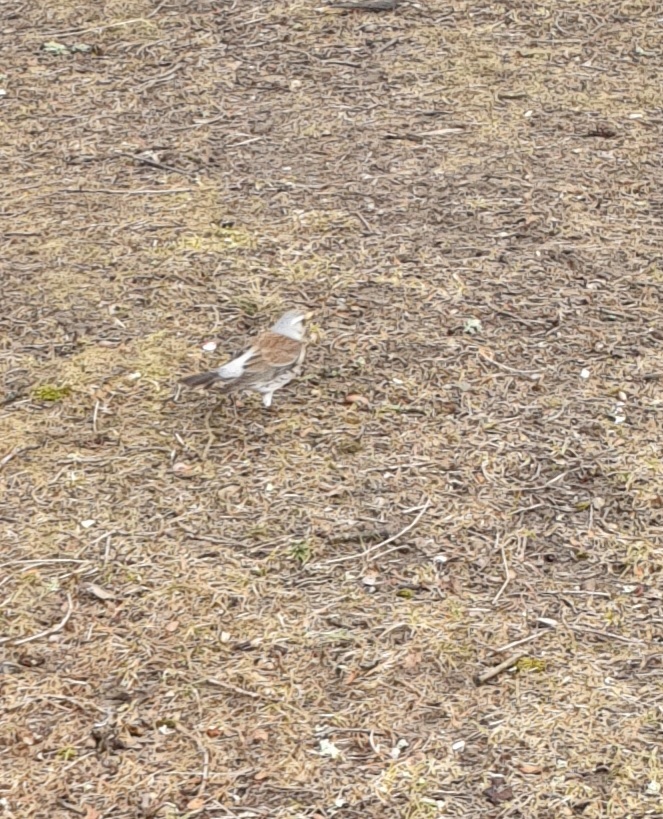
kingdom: Animalia
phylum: Chordata
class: Aves
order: Passeriformes
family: Turdidae
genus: Turdus
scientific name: Turdus pilaris
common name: Fieldfare
